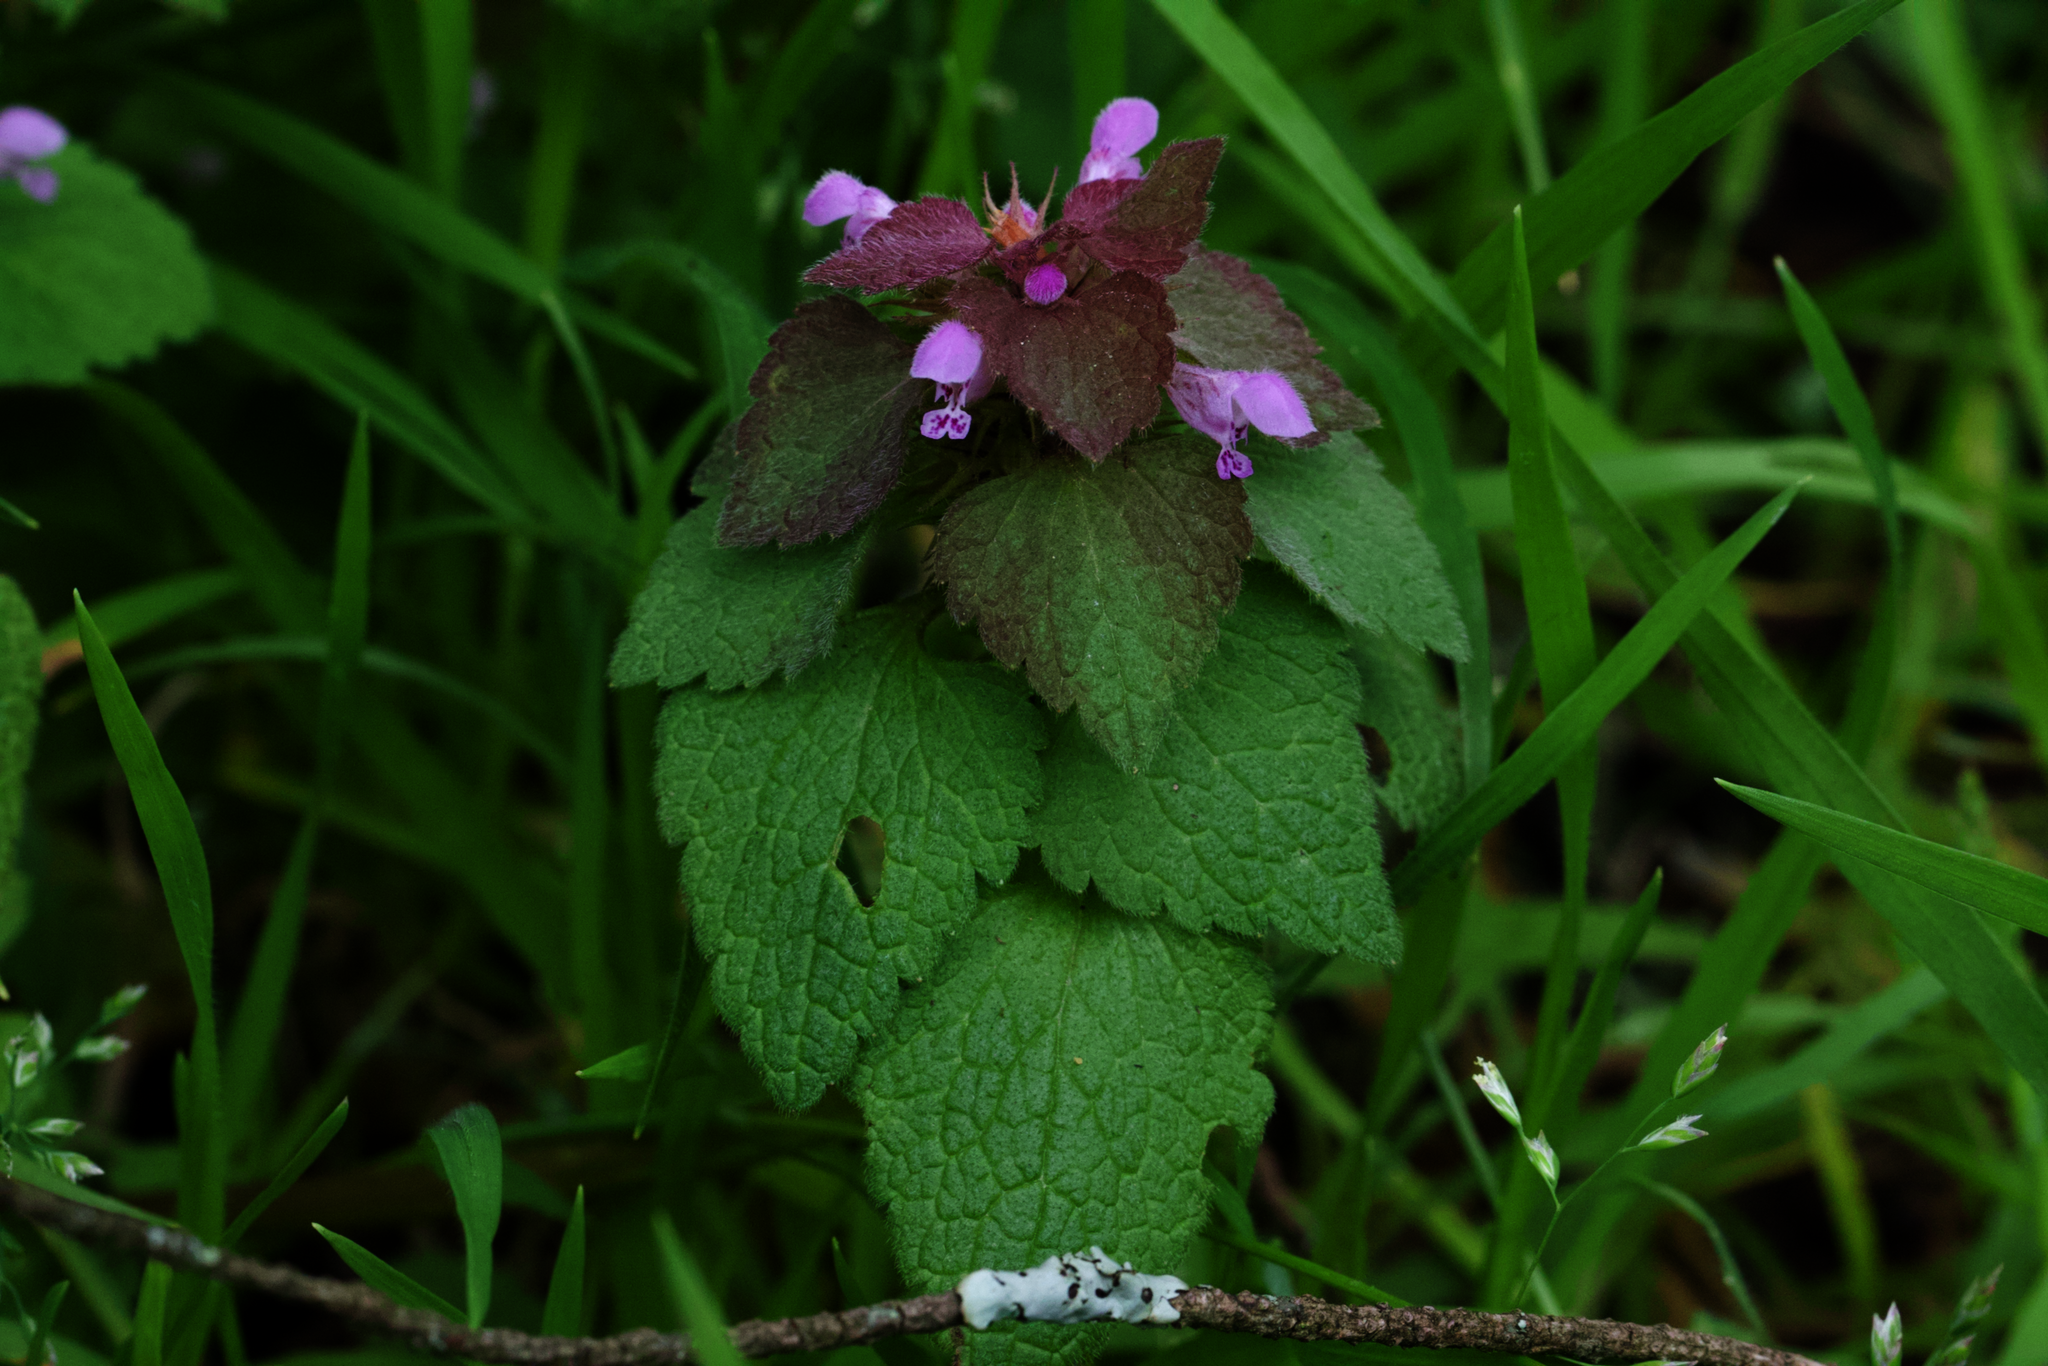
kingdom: Plantae
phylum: Tracheophyta
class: Magnoliopsida
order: Lamiales
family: Lamiaceae
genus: Lamium
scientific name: Lamium purpureum
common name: Red dead-nettle
